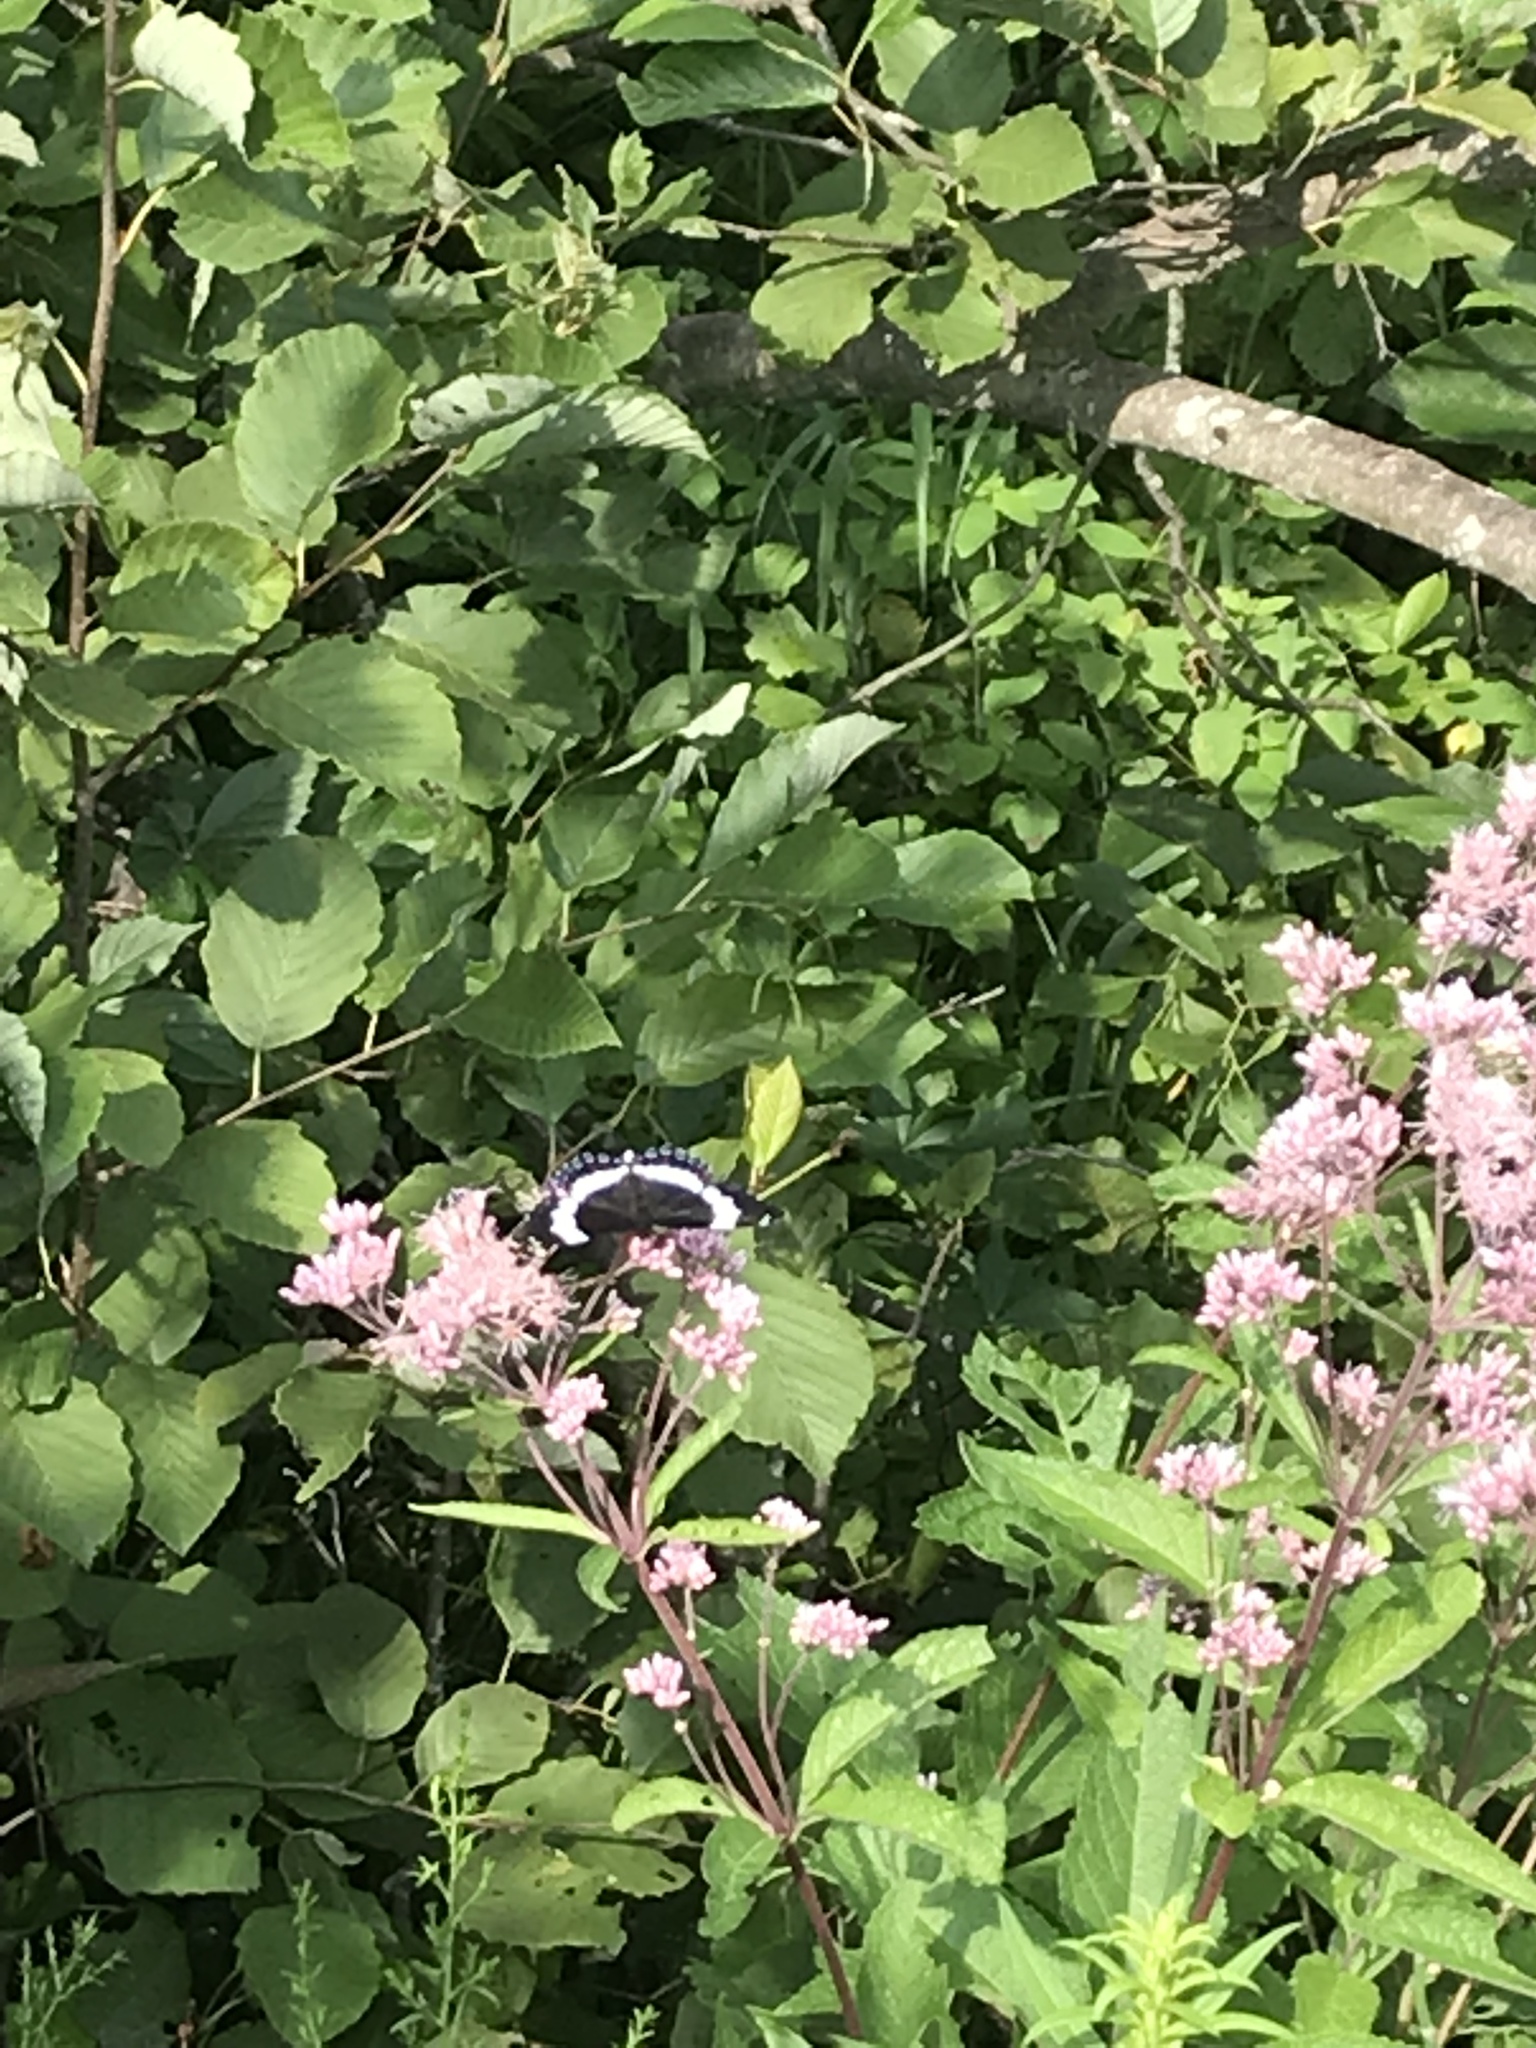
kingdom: Animalia
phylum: Arthropoda
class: Insecta
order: Lepidoptera
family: Nymphalidae
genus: Limenitis
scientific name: Limenitis arthemis
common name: Red-spotted admiral
